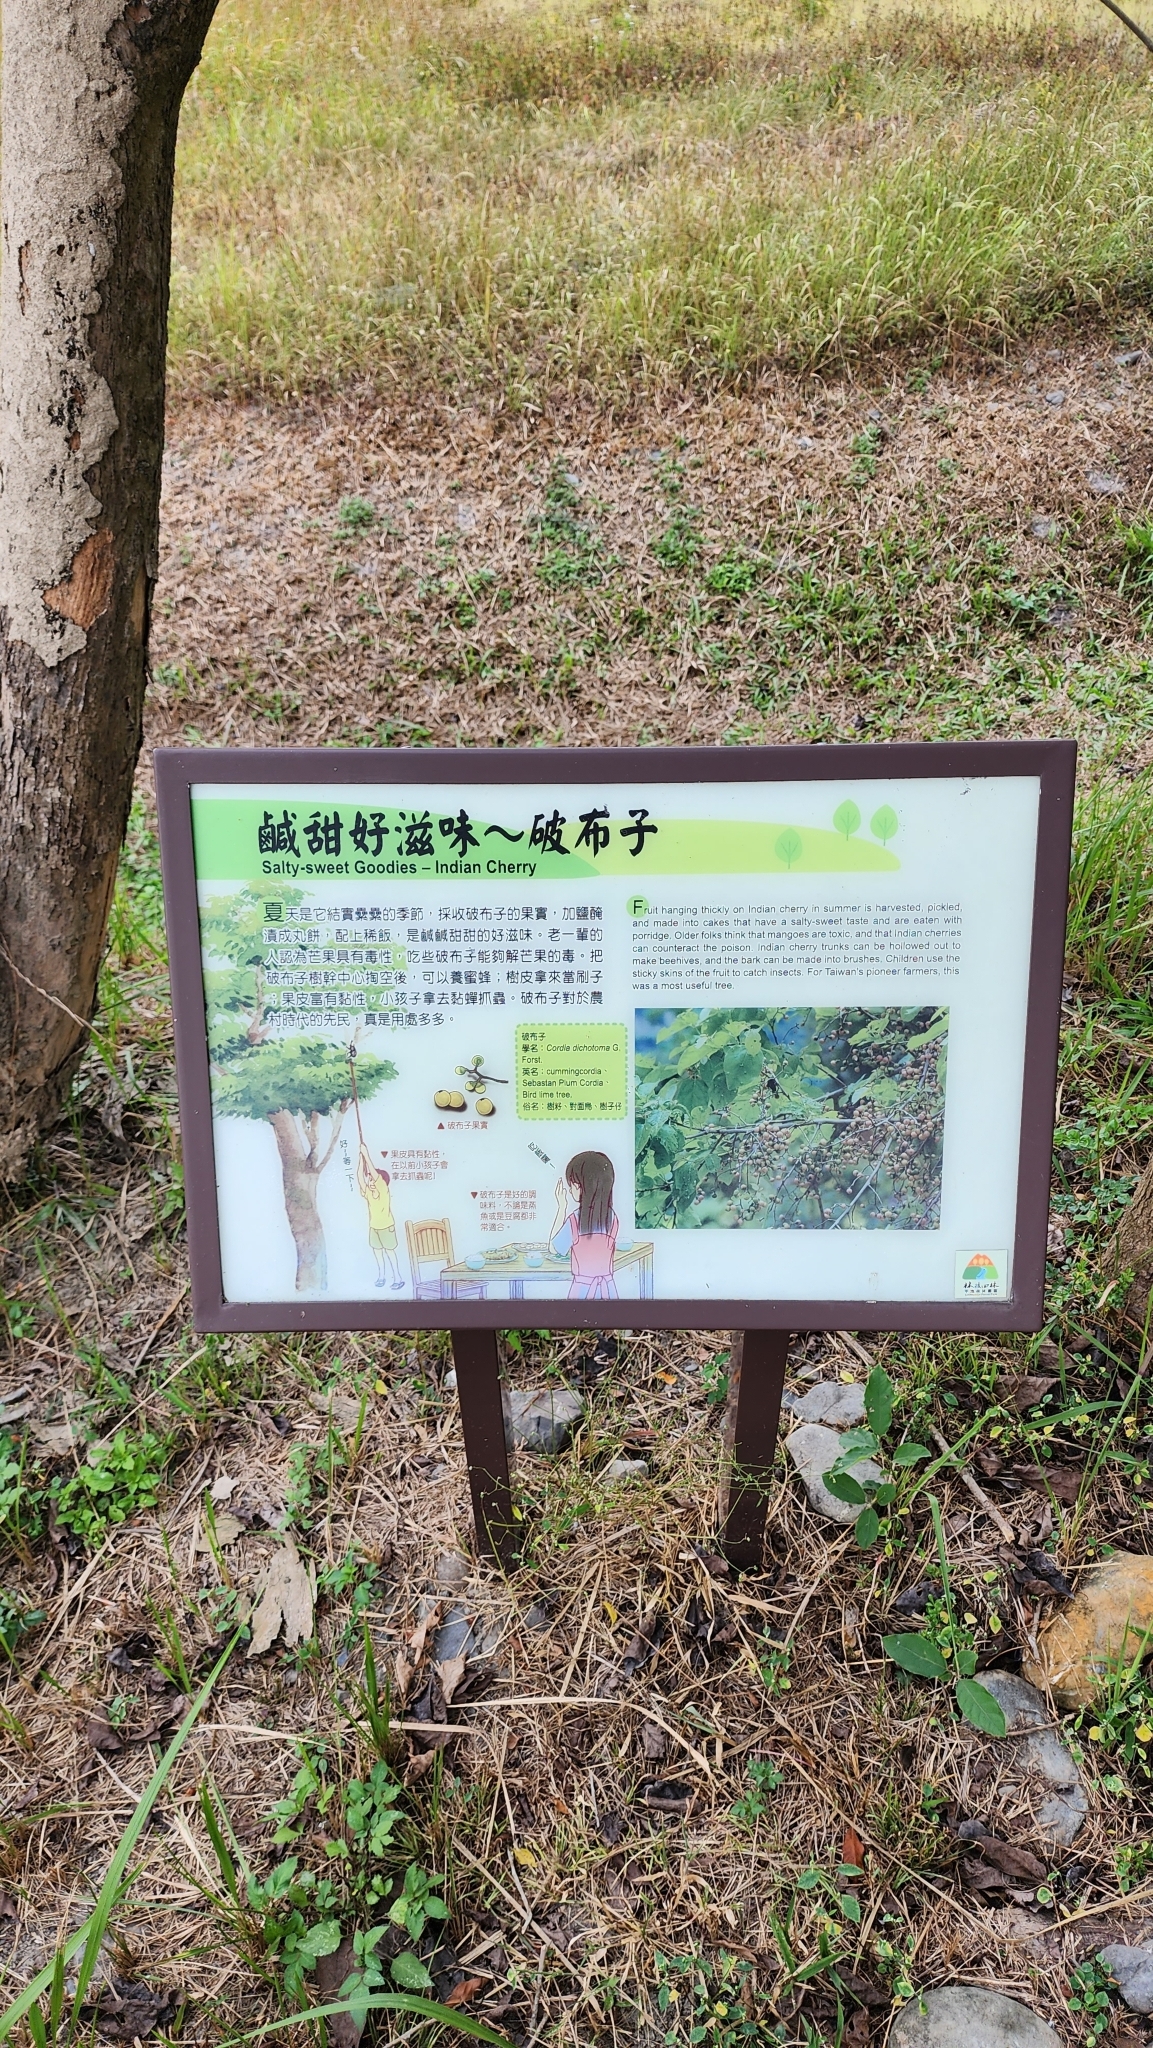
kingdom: Plantae
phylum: Tracheophyta
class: Magnoliopsida
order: Boraginales
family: Cordiaceae
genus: Cordia
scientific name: Cordia dichotoma
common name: Fragrant manjack
